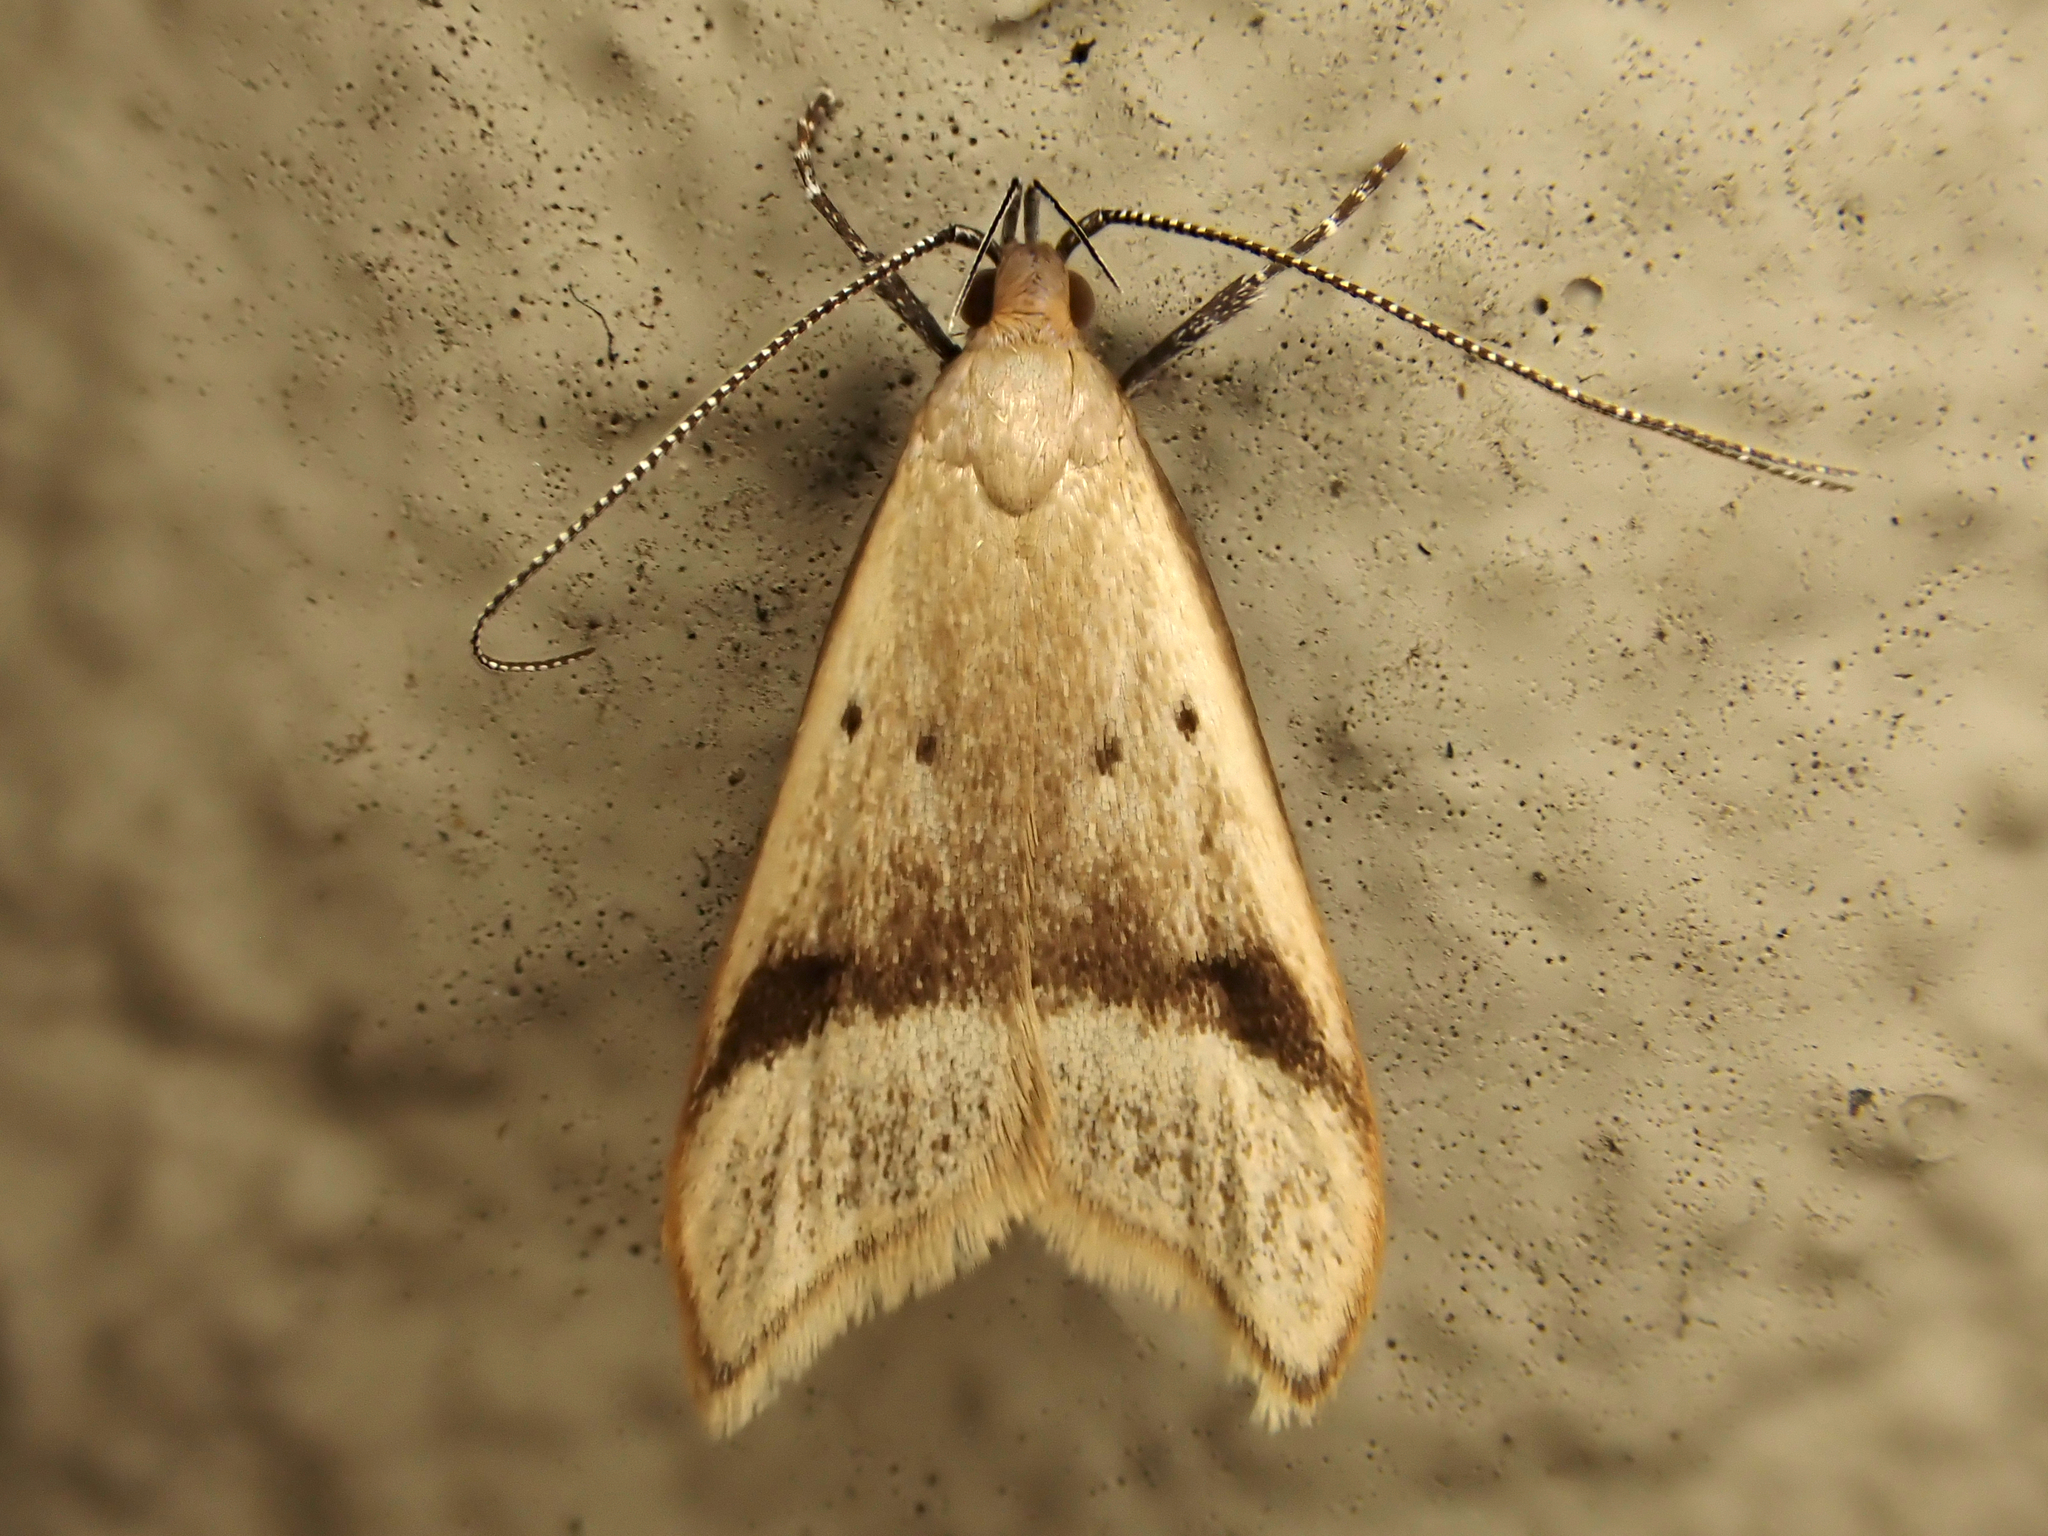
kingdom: Animalia
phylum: Arthropoda
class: Insecta
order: Lepidoptera
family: Oecophoridae
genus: Gymnobathra
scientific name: Gymnobathra hyetodes
